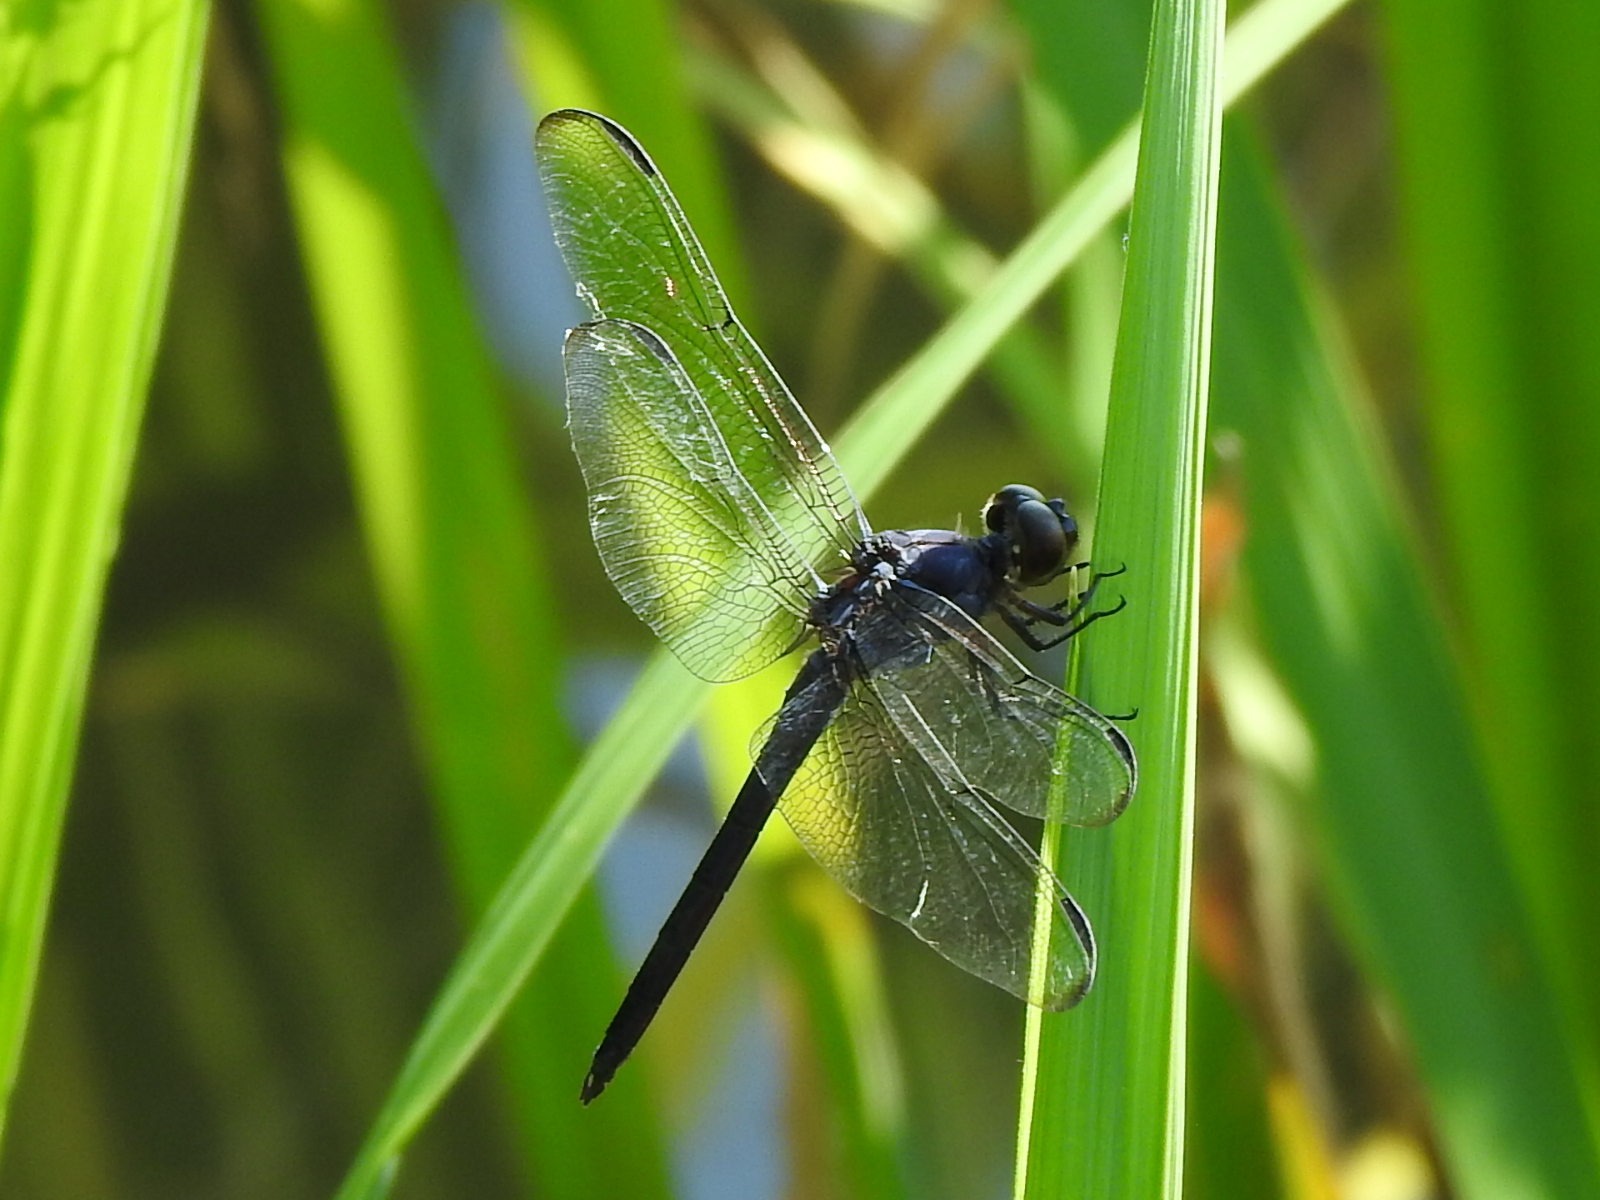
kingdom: Animalia
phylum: Arthropoda
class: Insecta
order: Odonata
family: Libellulidae
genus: Libellula
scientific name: Libellula incesta
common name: Slaty skimmer
